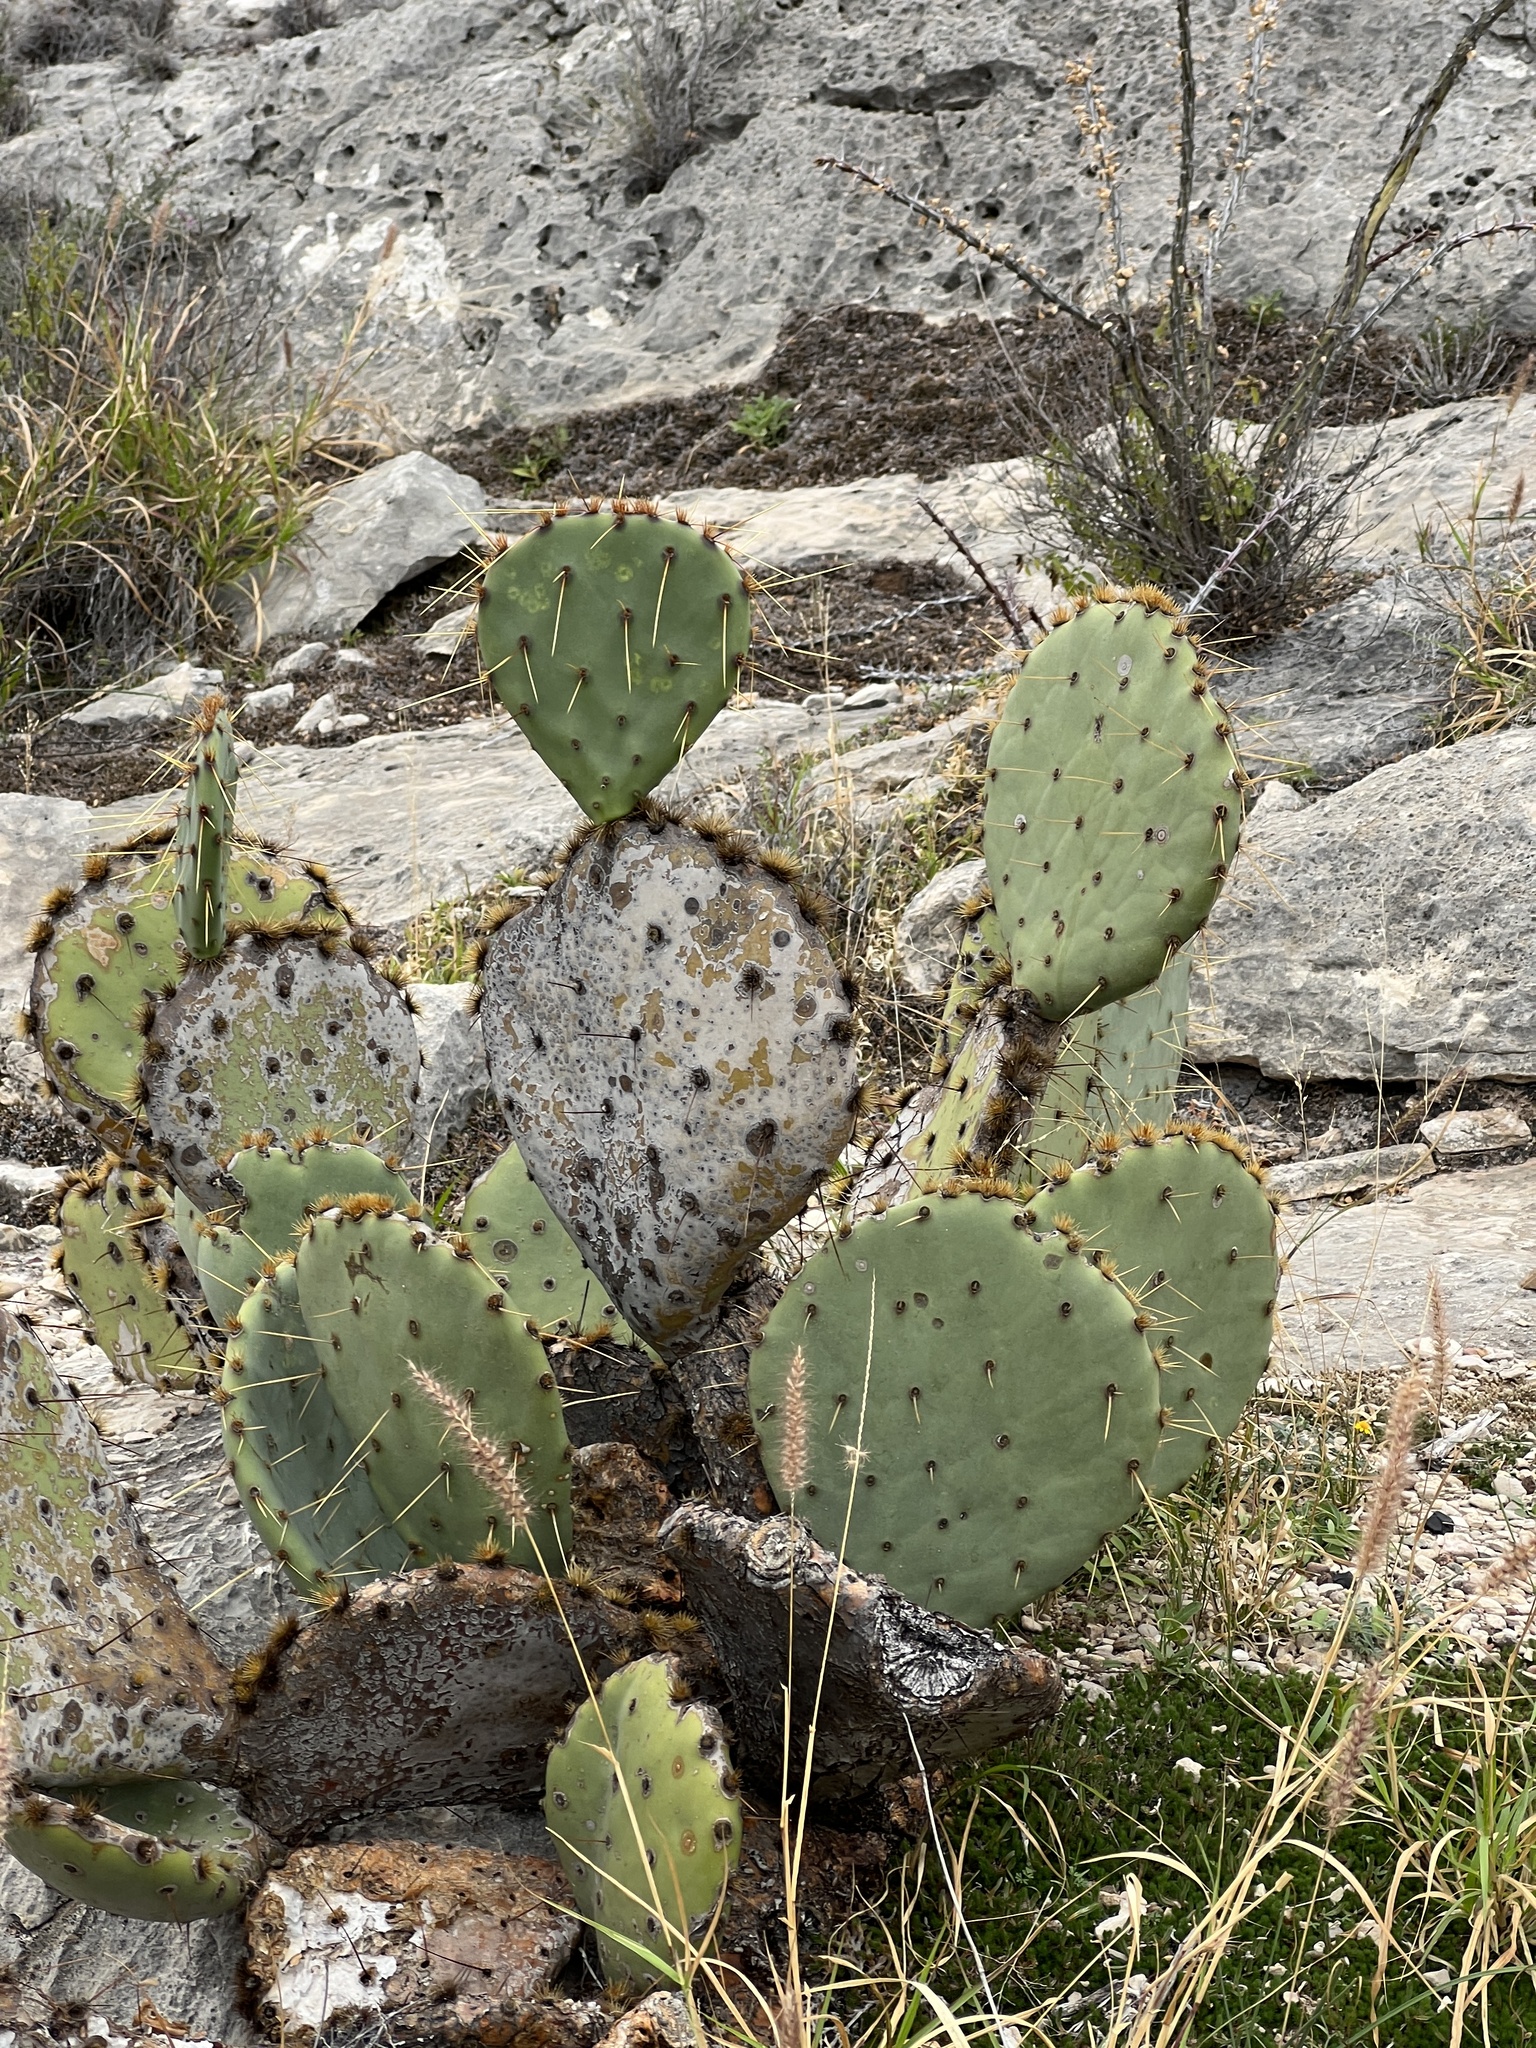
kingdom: Plantae
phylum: Tracheophyta
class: Magnoliopsida
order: Caryophyllales
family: Cactaceae
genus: Opuntia
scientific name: Opuntia engelmannii
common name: Cactus-apple
